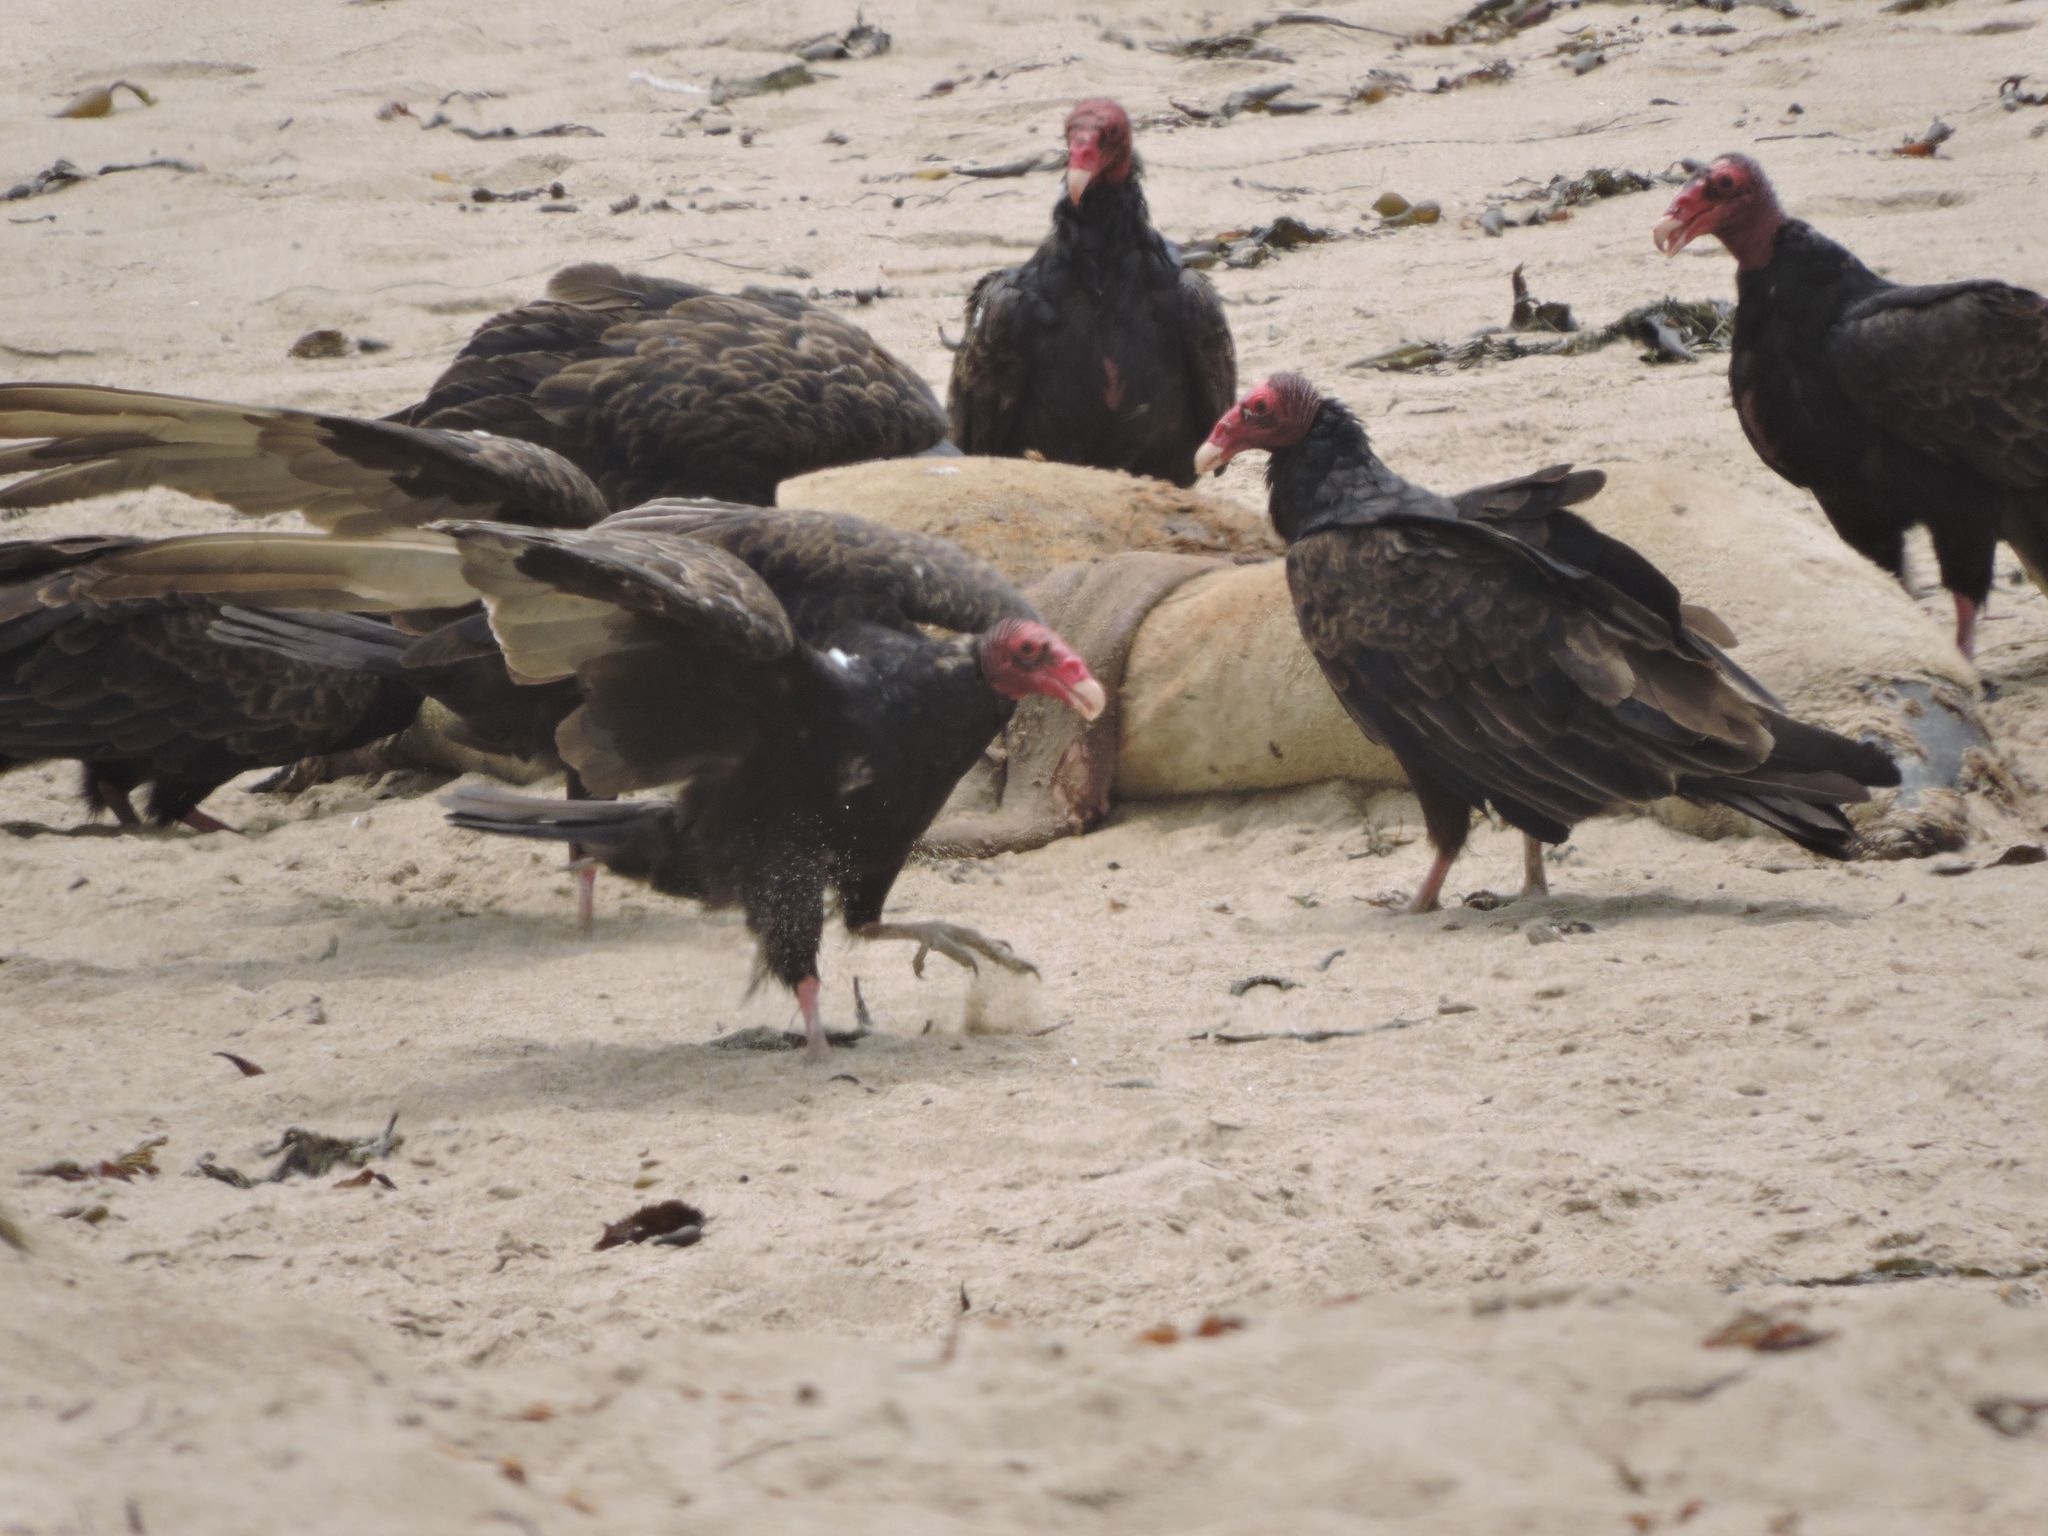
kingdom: Animalia
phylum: Chordata
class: Aves
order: Accipitriformes
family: Cathartidae
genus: Cathartes
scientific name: Cathartes aura
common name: Turkey vulture
